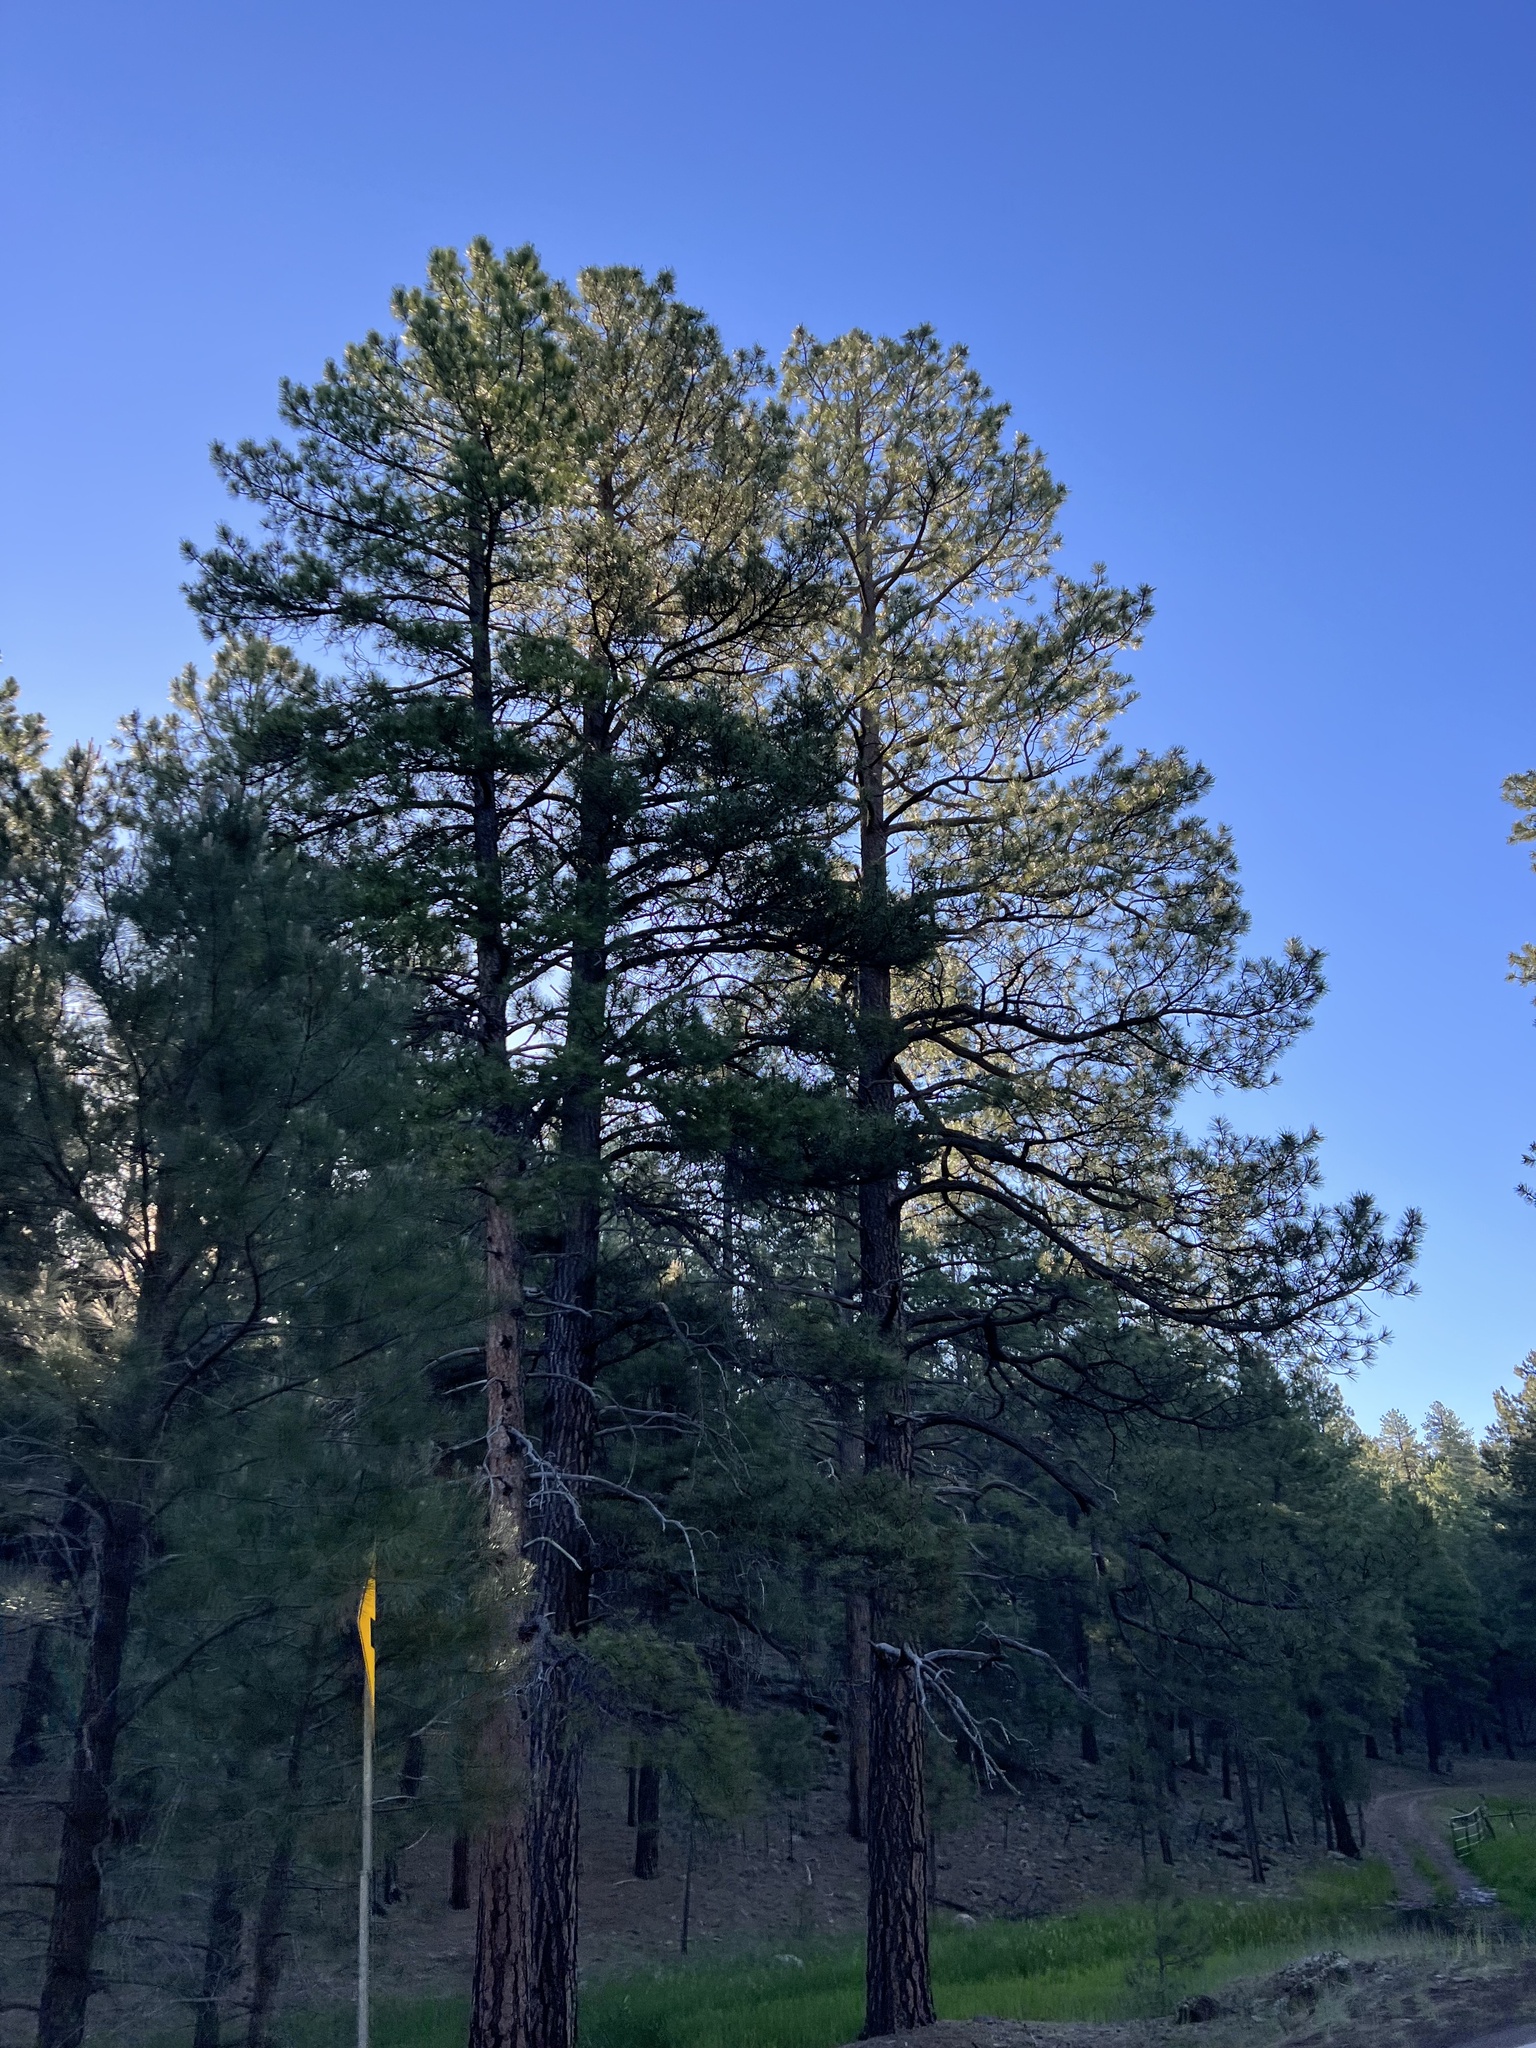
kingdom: Plantae
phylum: Tracheophyta
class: Pinopsida
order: Pinales
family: Pinaceae
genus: Pinus
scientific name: Pinus ponderosa
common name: Western yellow-pine
